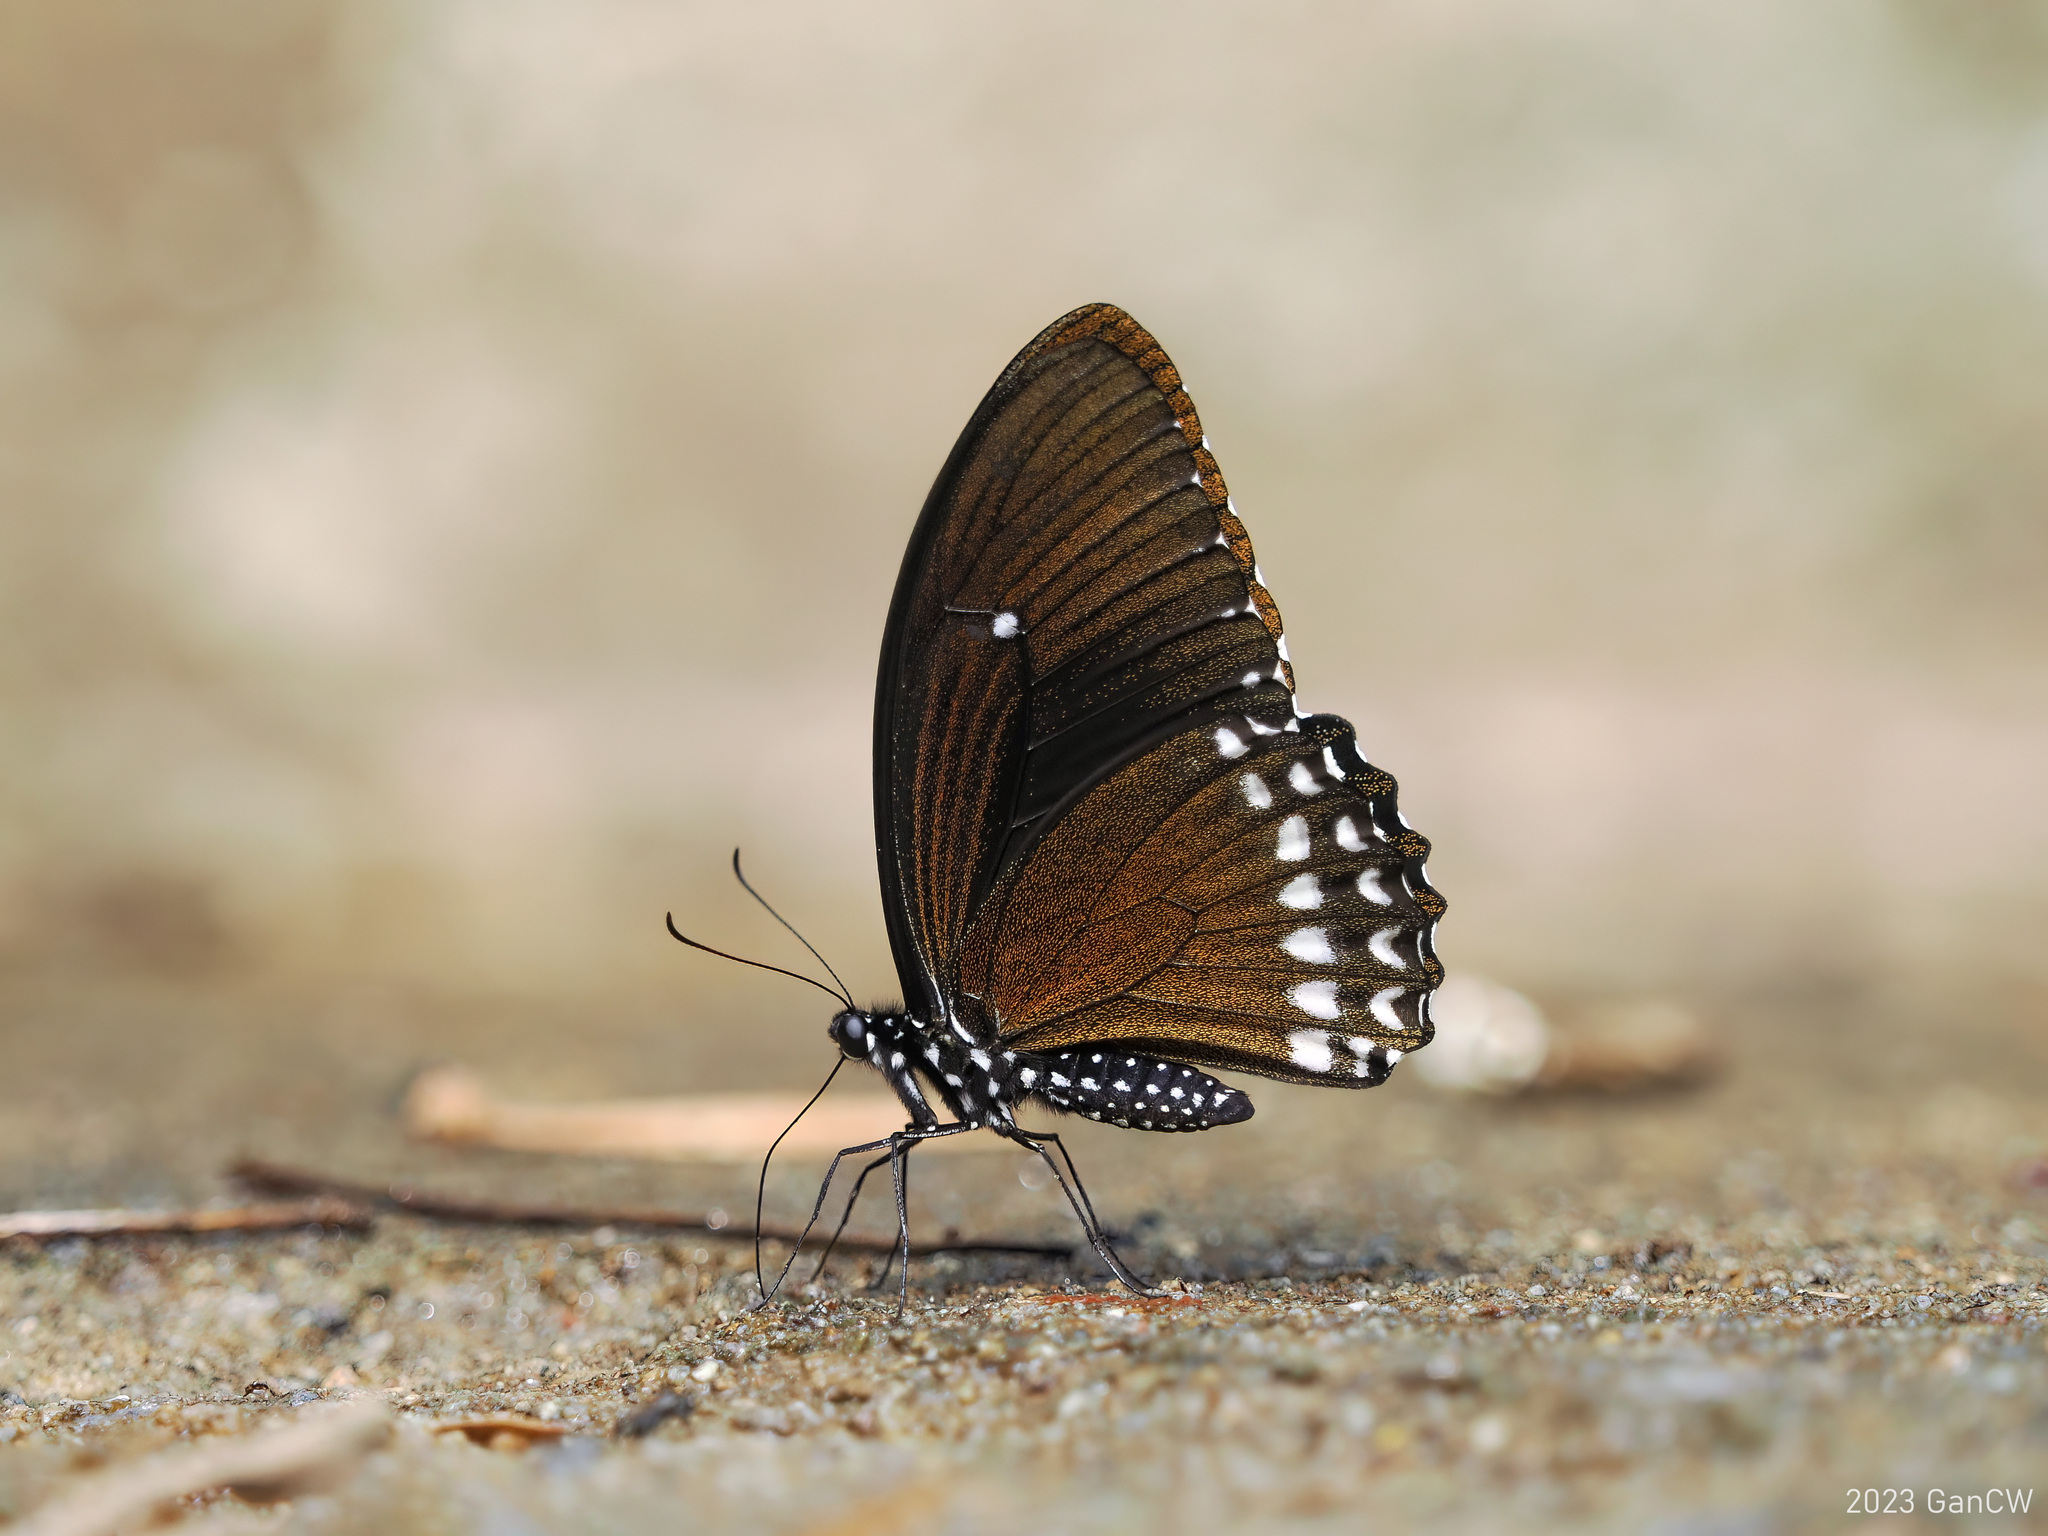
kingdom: Animalia
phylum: Arthropoda
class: Insecta
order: Lepidoptera
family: Papilionidae
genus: Papilio
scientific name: Papilio castor
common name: Common raven
